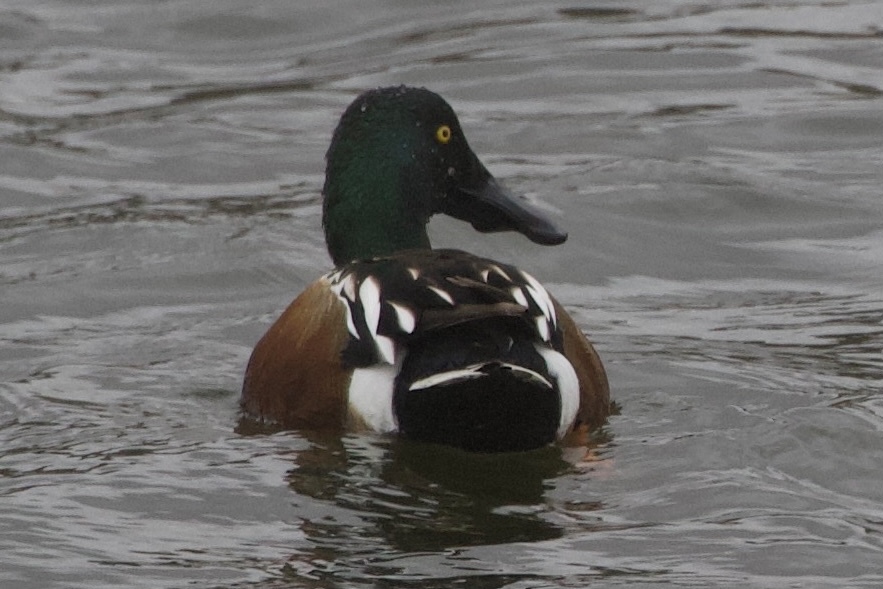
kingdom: Animalia
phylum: Chordata
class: Aves
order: Anseriformes
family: Anatidae
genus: Spatula
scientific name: Spatula clypeata
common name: Northern shoveler
